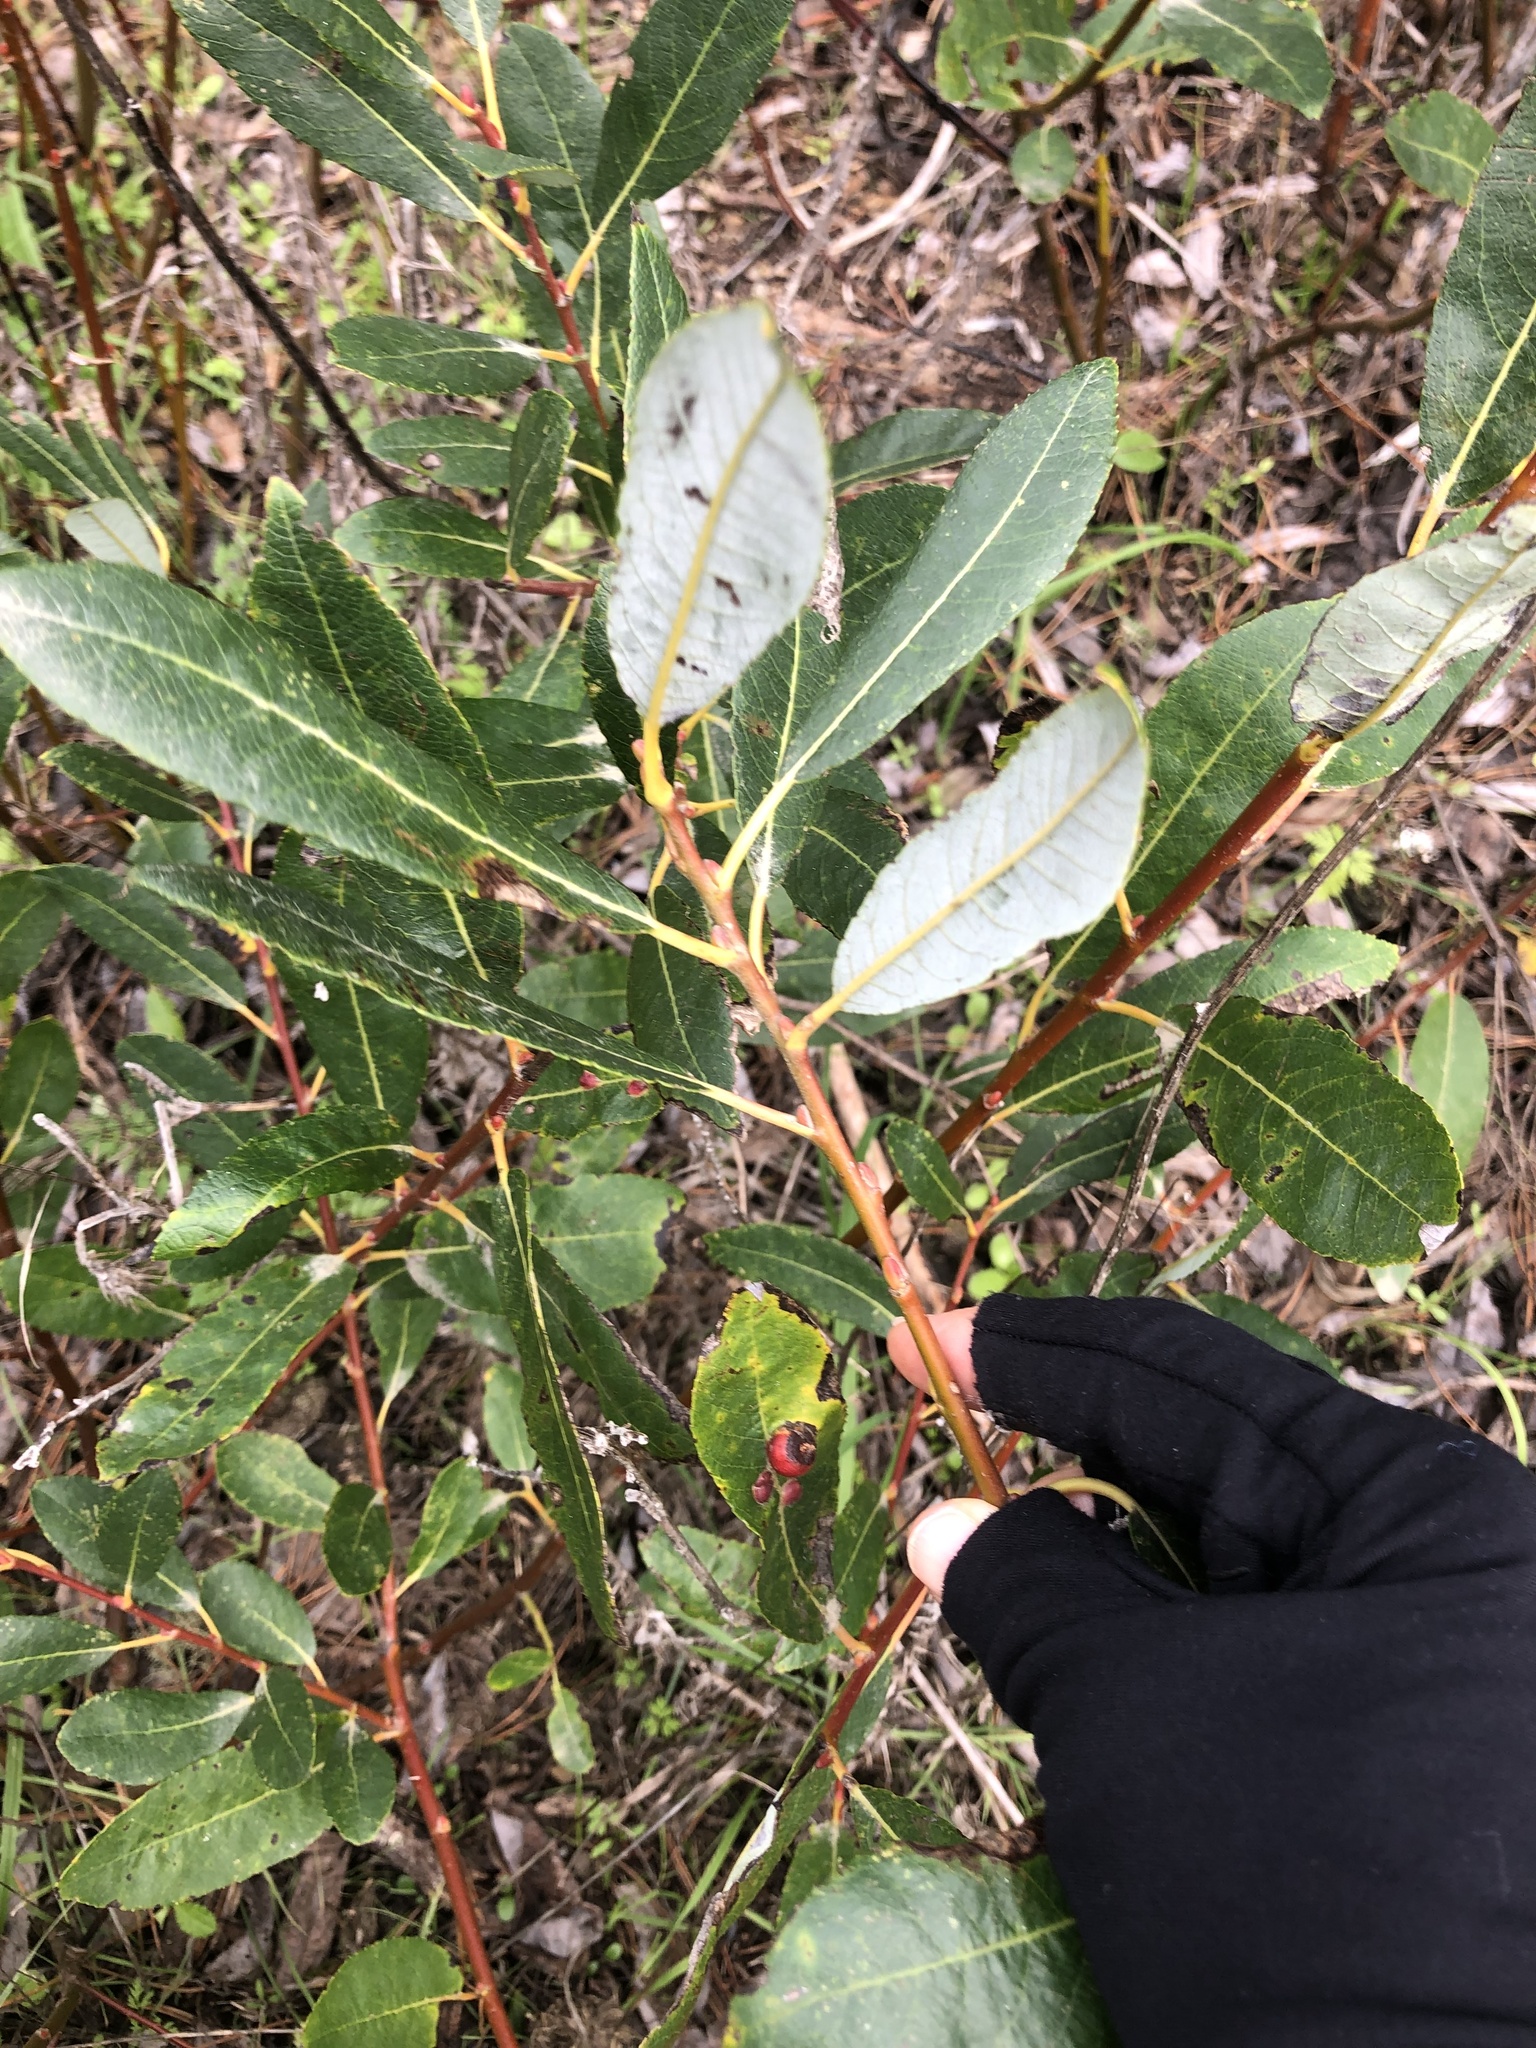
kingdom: Plantae
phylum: Tracheophyta
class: Magnoliopsida
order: Malpighiales
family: Salicaceae
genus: Salix
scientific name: Salix lasiolepis
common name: Arroyo willow
